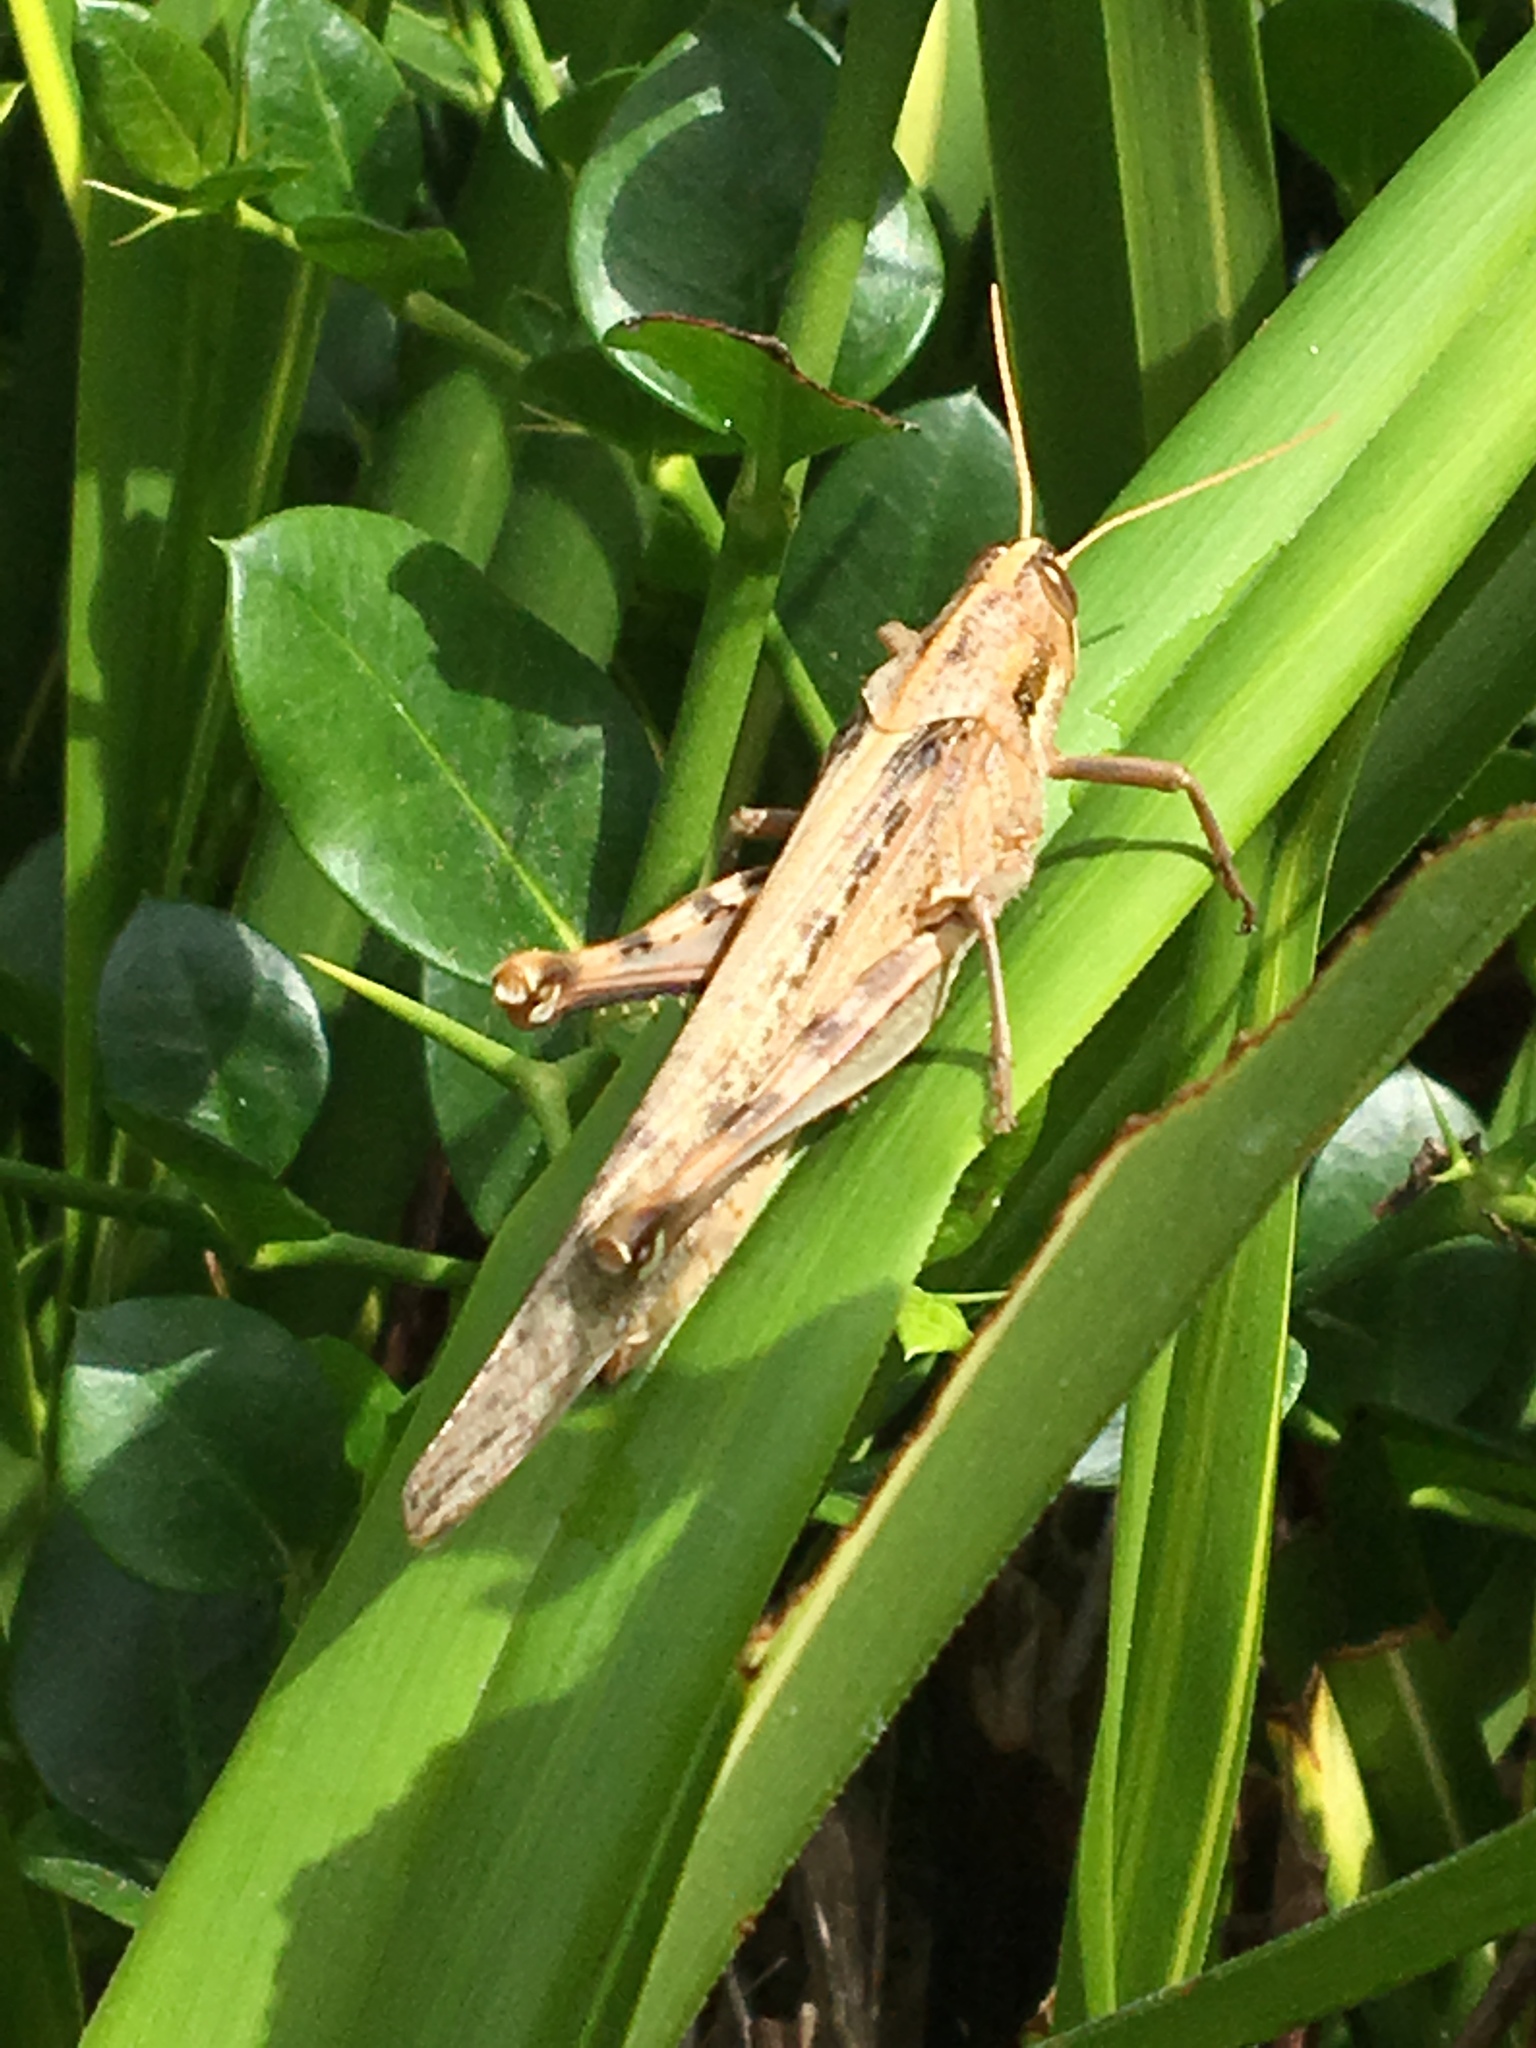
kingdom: Animalia
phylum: Arthropoda
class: Insecta
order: Orthoptera
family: Acrididae
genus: Schistocerca
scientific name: Schistocerca nitens
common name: Vagrant grasshopper
